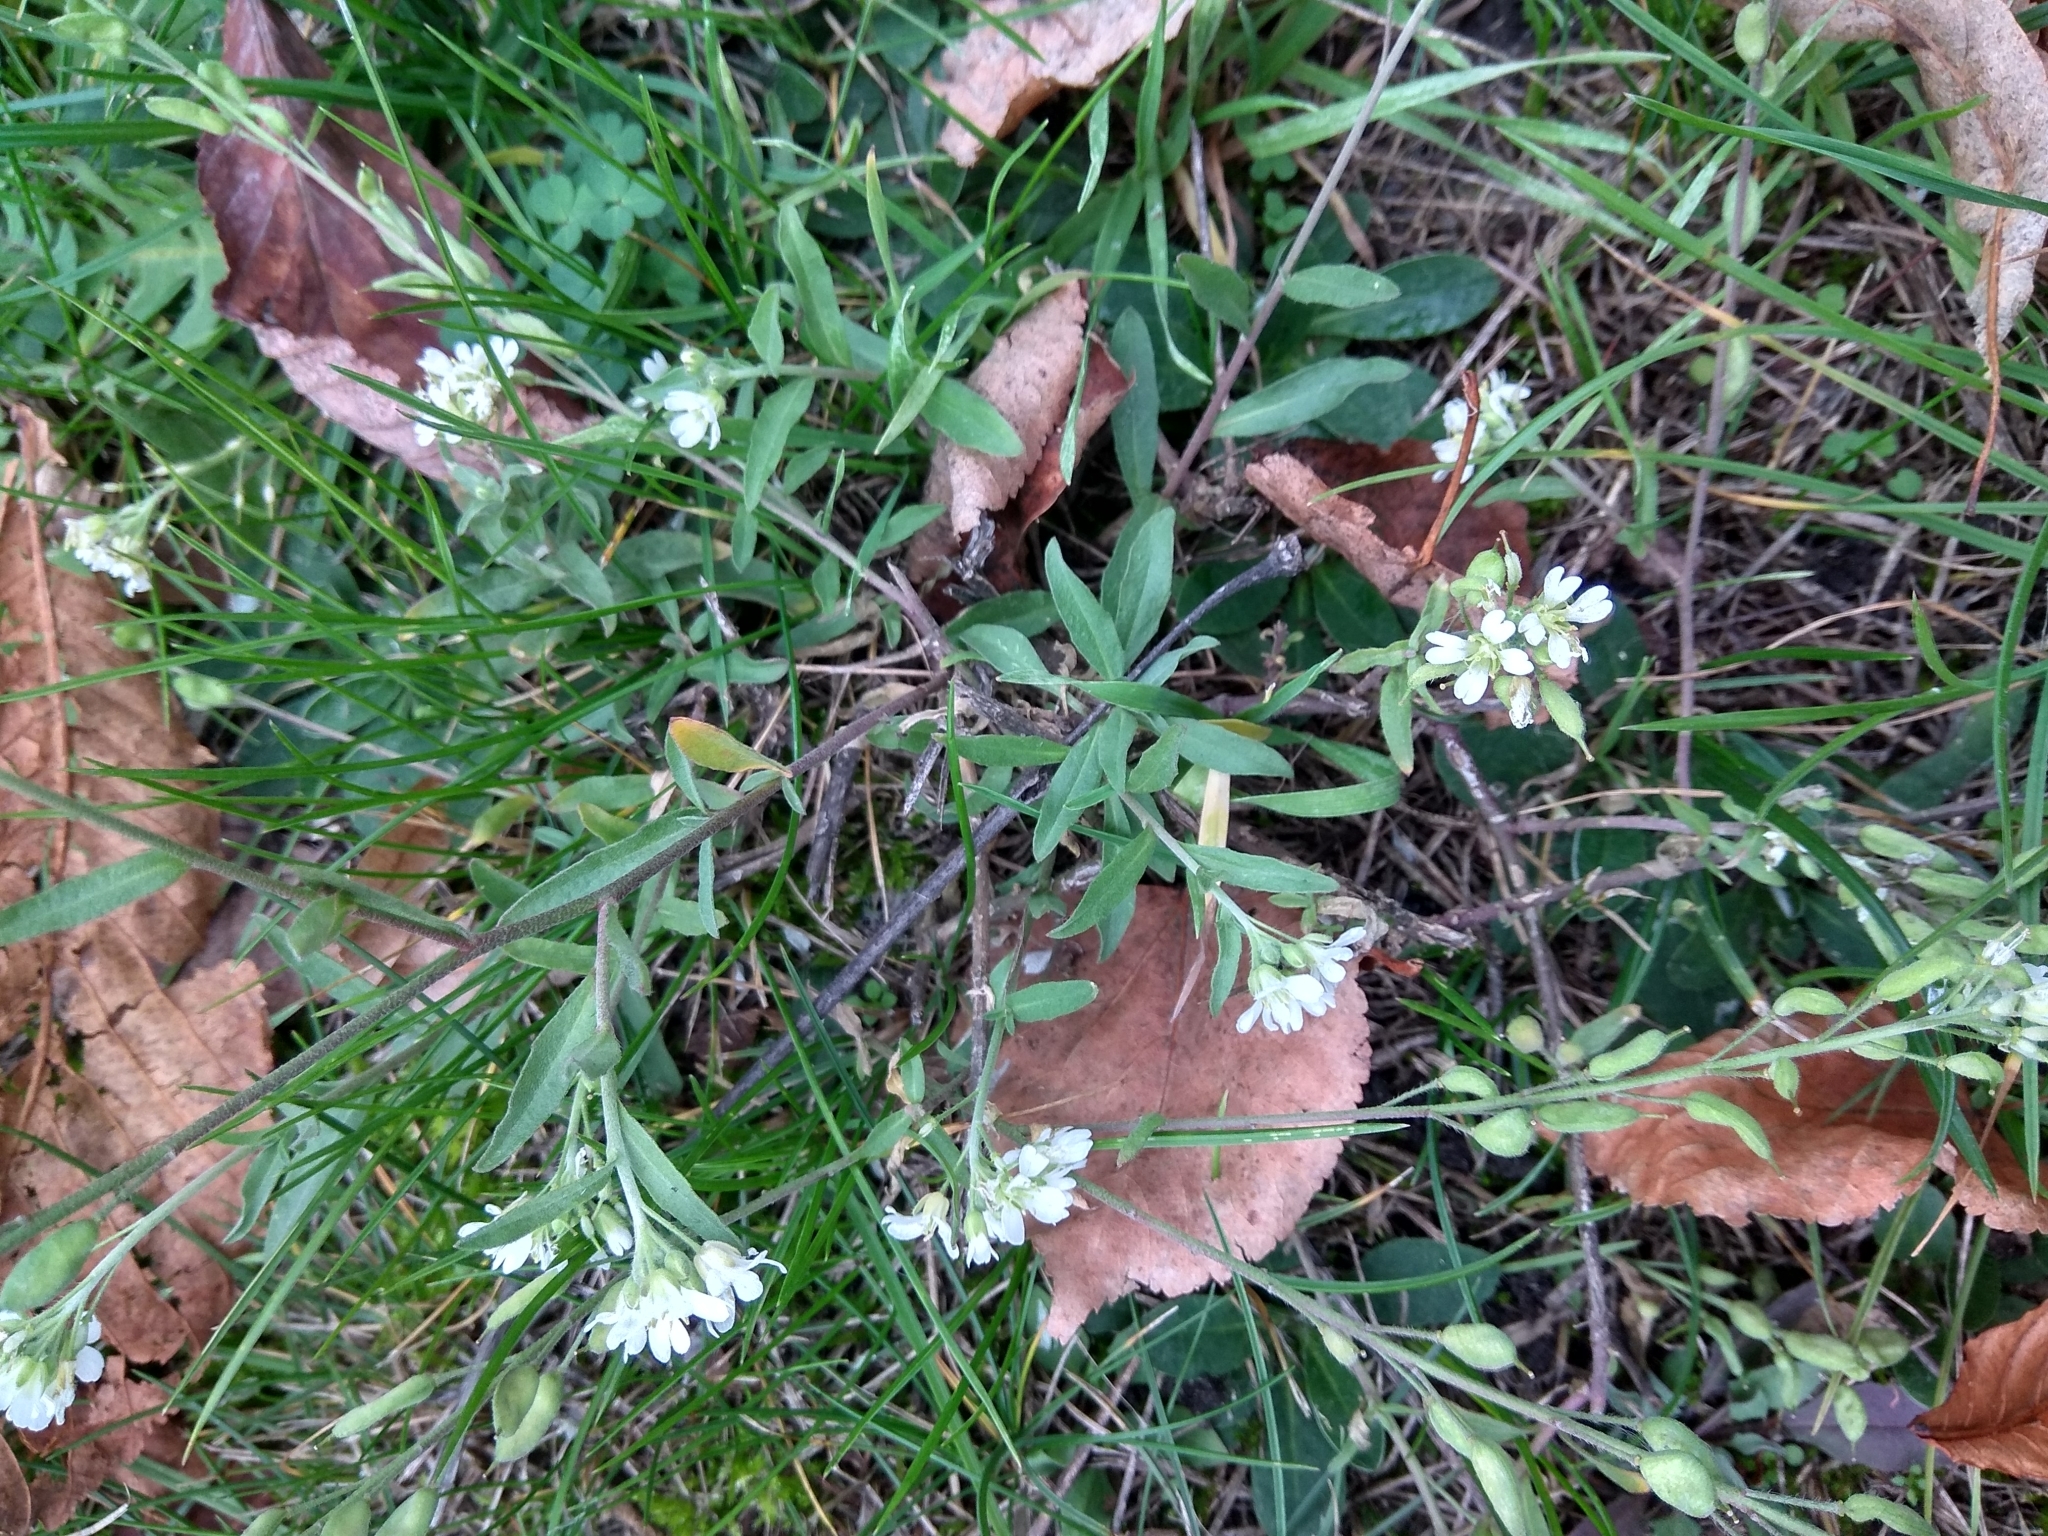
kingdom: Plantae
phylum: Tracheophyta
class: Magnoliopsida
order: Brassicales
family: Brassicaceae
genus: Berteroa
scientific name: Berteroa incana
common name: Hoary alison
